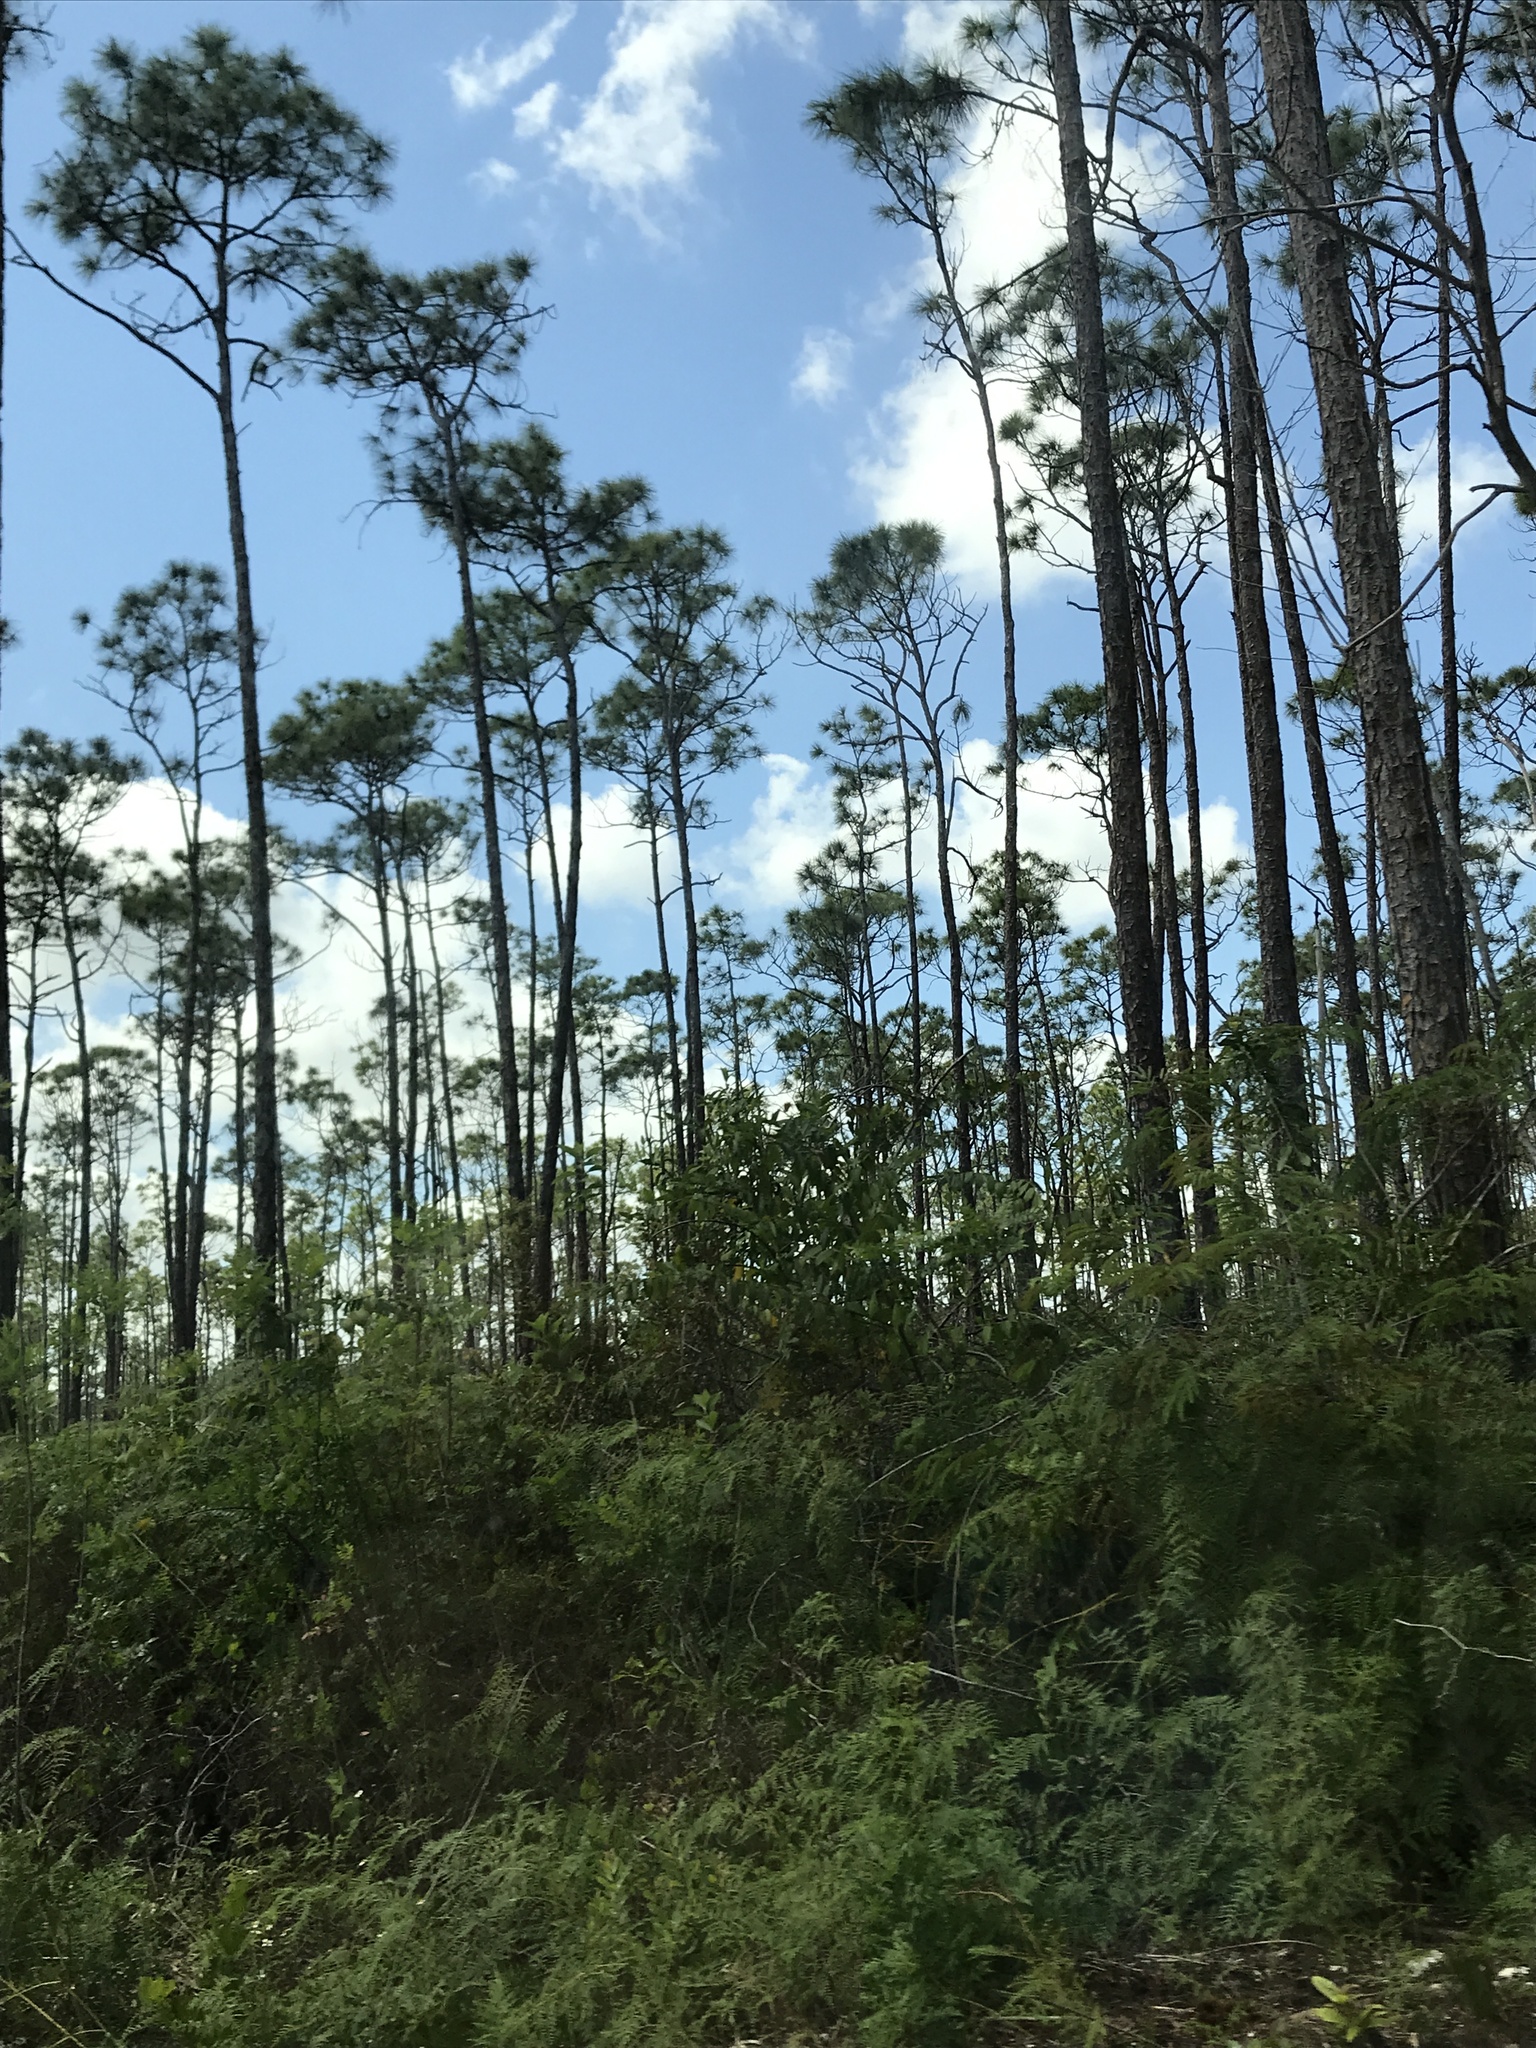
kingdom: Plantae
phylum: Tracheophyta
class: Pinopsida
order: Pinales
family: Pinaceae
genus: Pinus
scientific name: Pinus elliottii
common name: Slash pine
